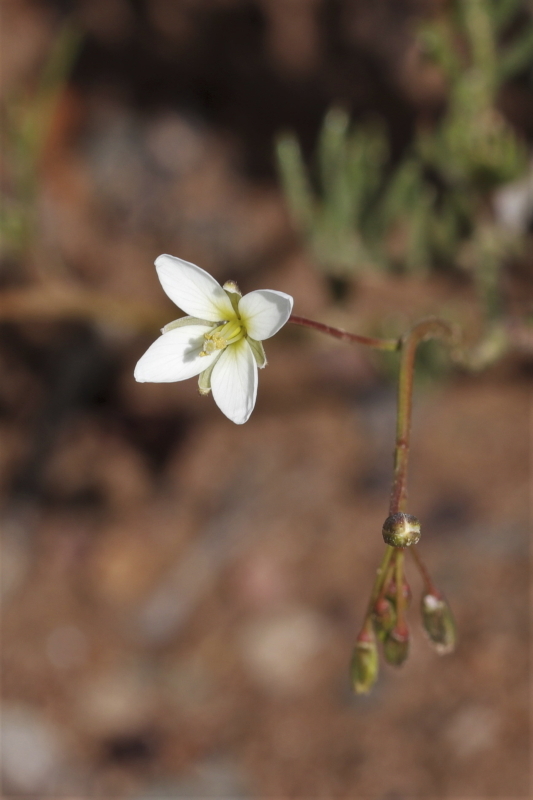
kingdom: Plantae
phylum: Tracheophyta
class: Magnoliopsida
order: Brassicales
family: Brassicaceae
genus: Heliophila
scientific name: Heliophila crithmifolia
